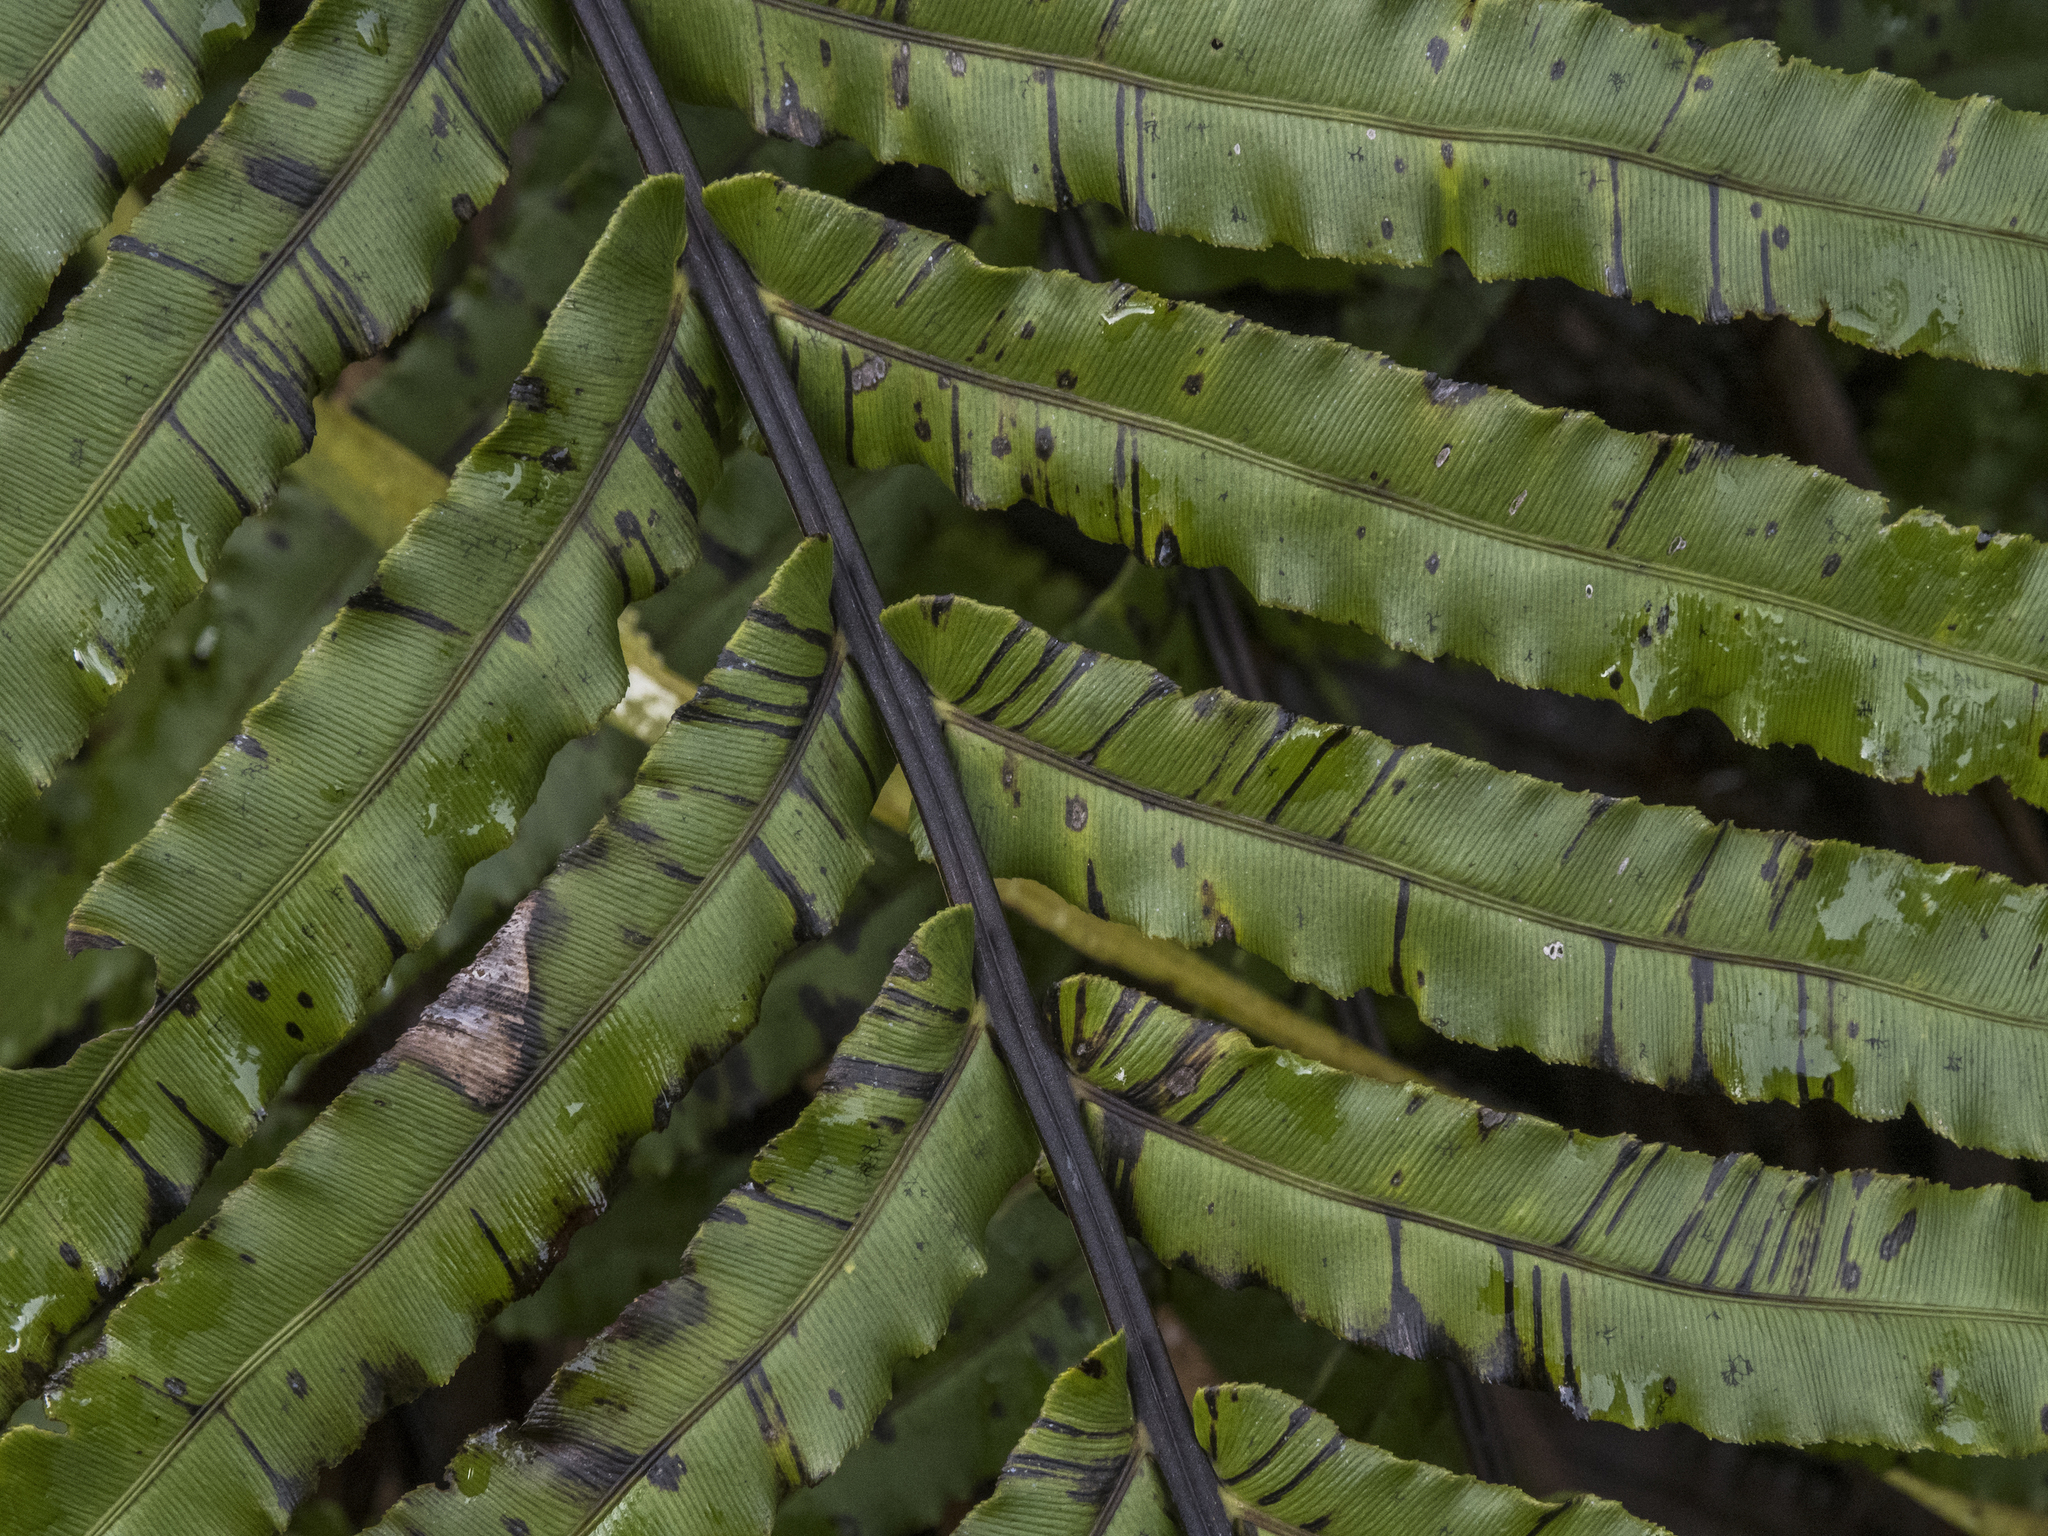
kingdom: Plantae
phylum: Tracheophyta
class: Polypodiopsida
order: Polypodiales
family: Blechnaceae
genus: Parablechnum
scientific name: Parablechnum novae-zelandiae
